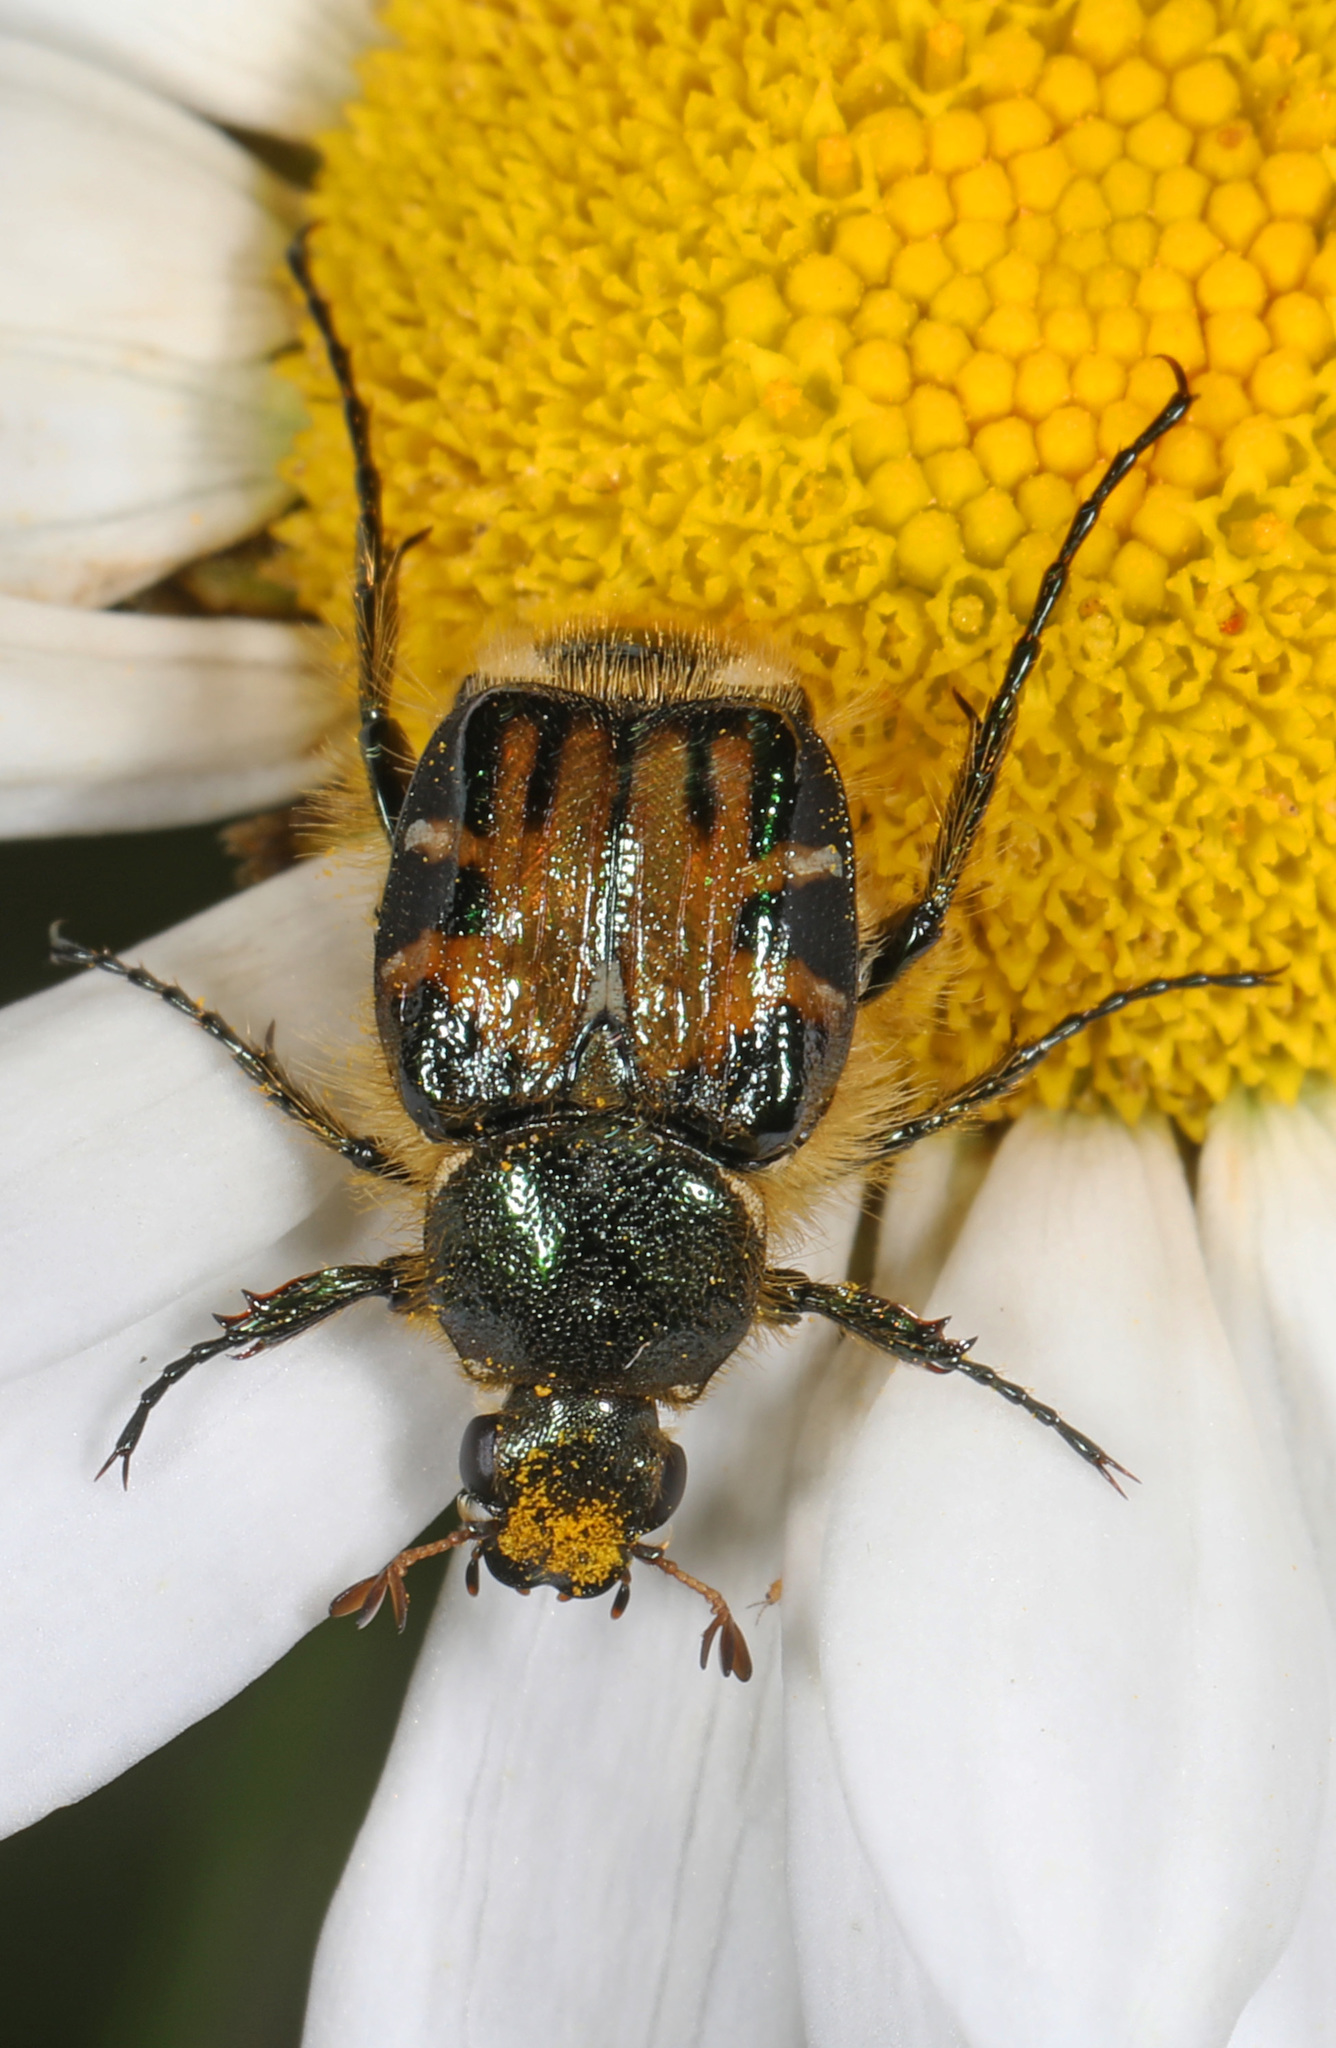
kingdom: Animalia
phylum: Arthropoda
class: Insecta
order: Coleoptera
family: Scarabaeidae
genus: Trichiotinus
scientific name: Trichiotinus affinis
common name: Hairy flower scarab
